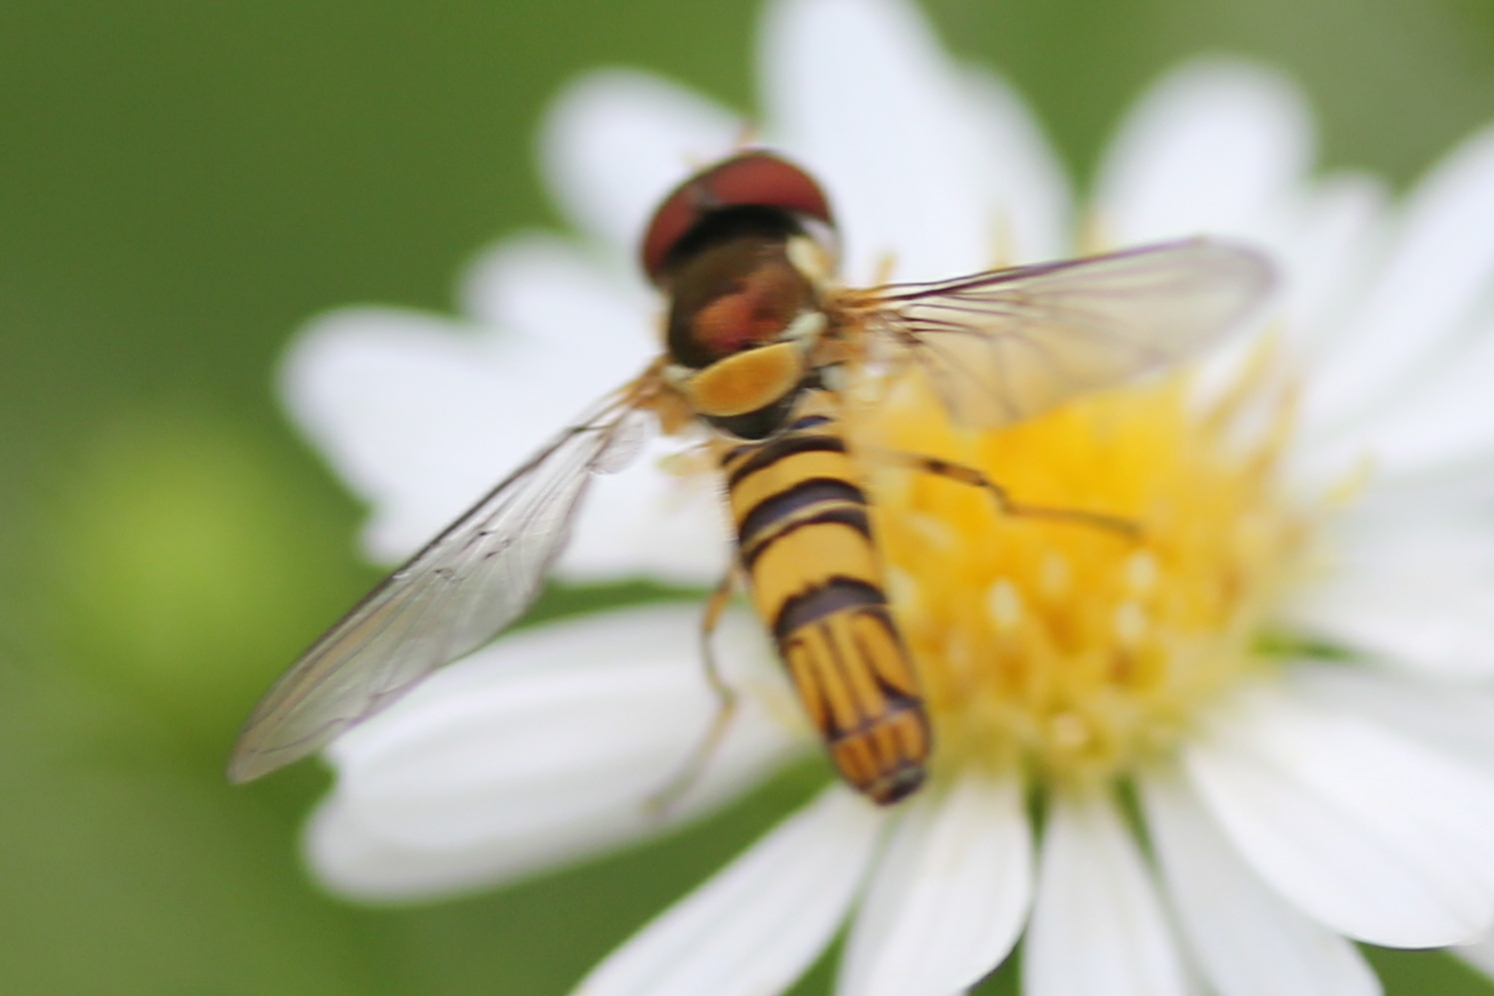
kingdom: Animalia
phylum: Arthropoda
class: Insecta
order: Diptera
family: Syrphidae
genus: Allograpta
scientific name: Allograpta obliqua
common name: Common oblique syrphid
